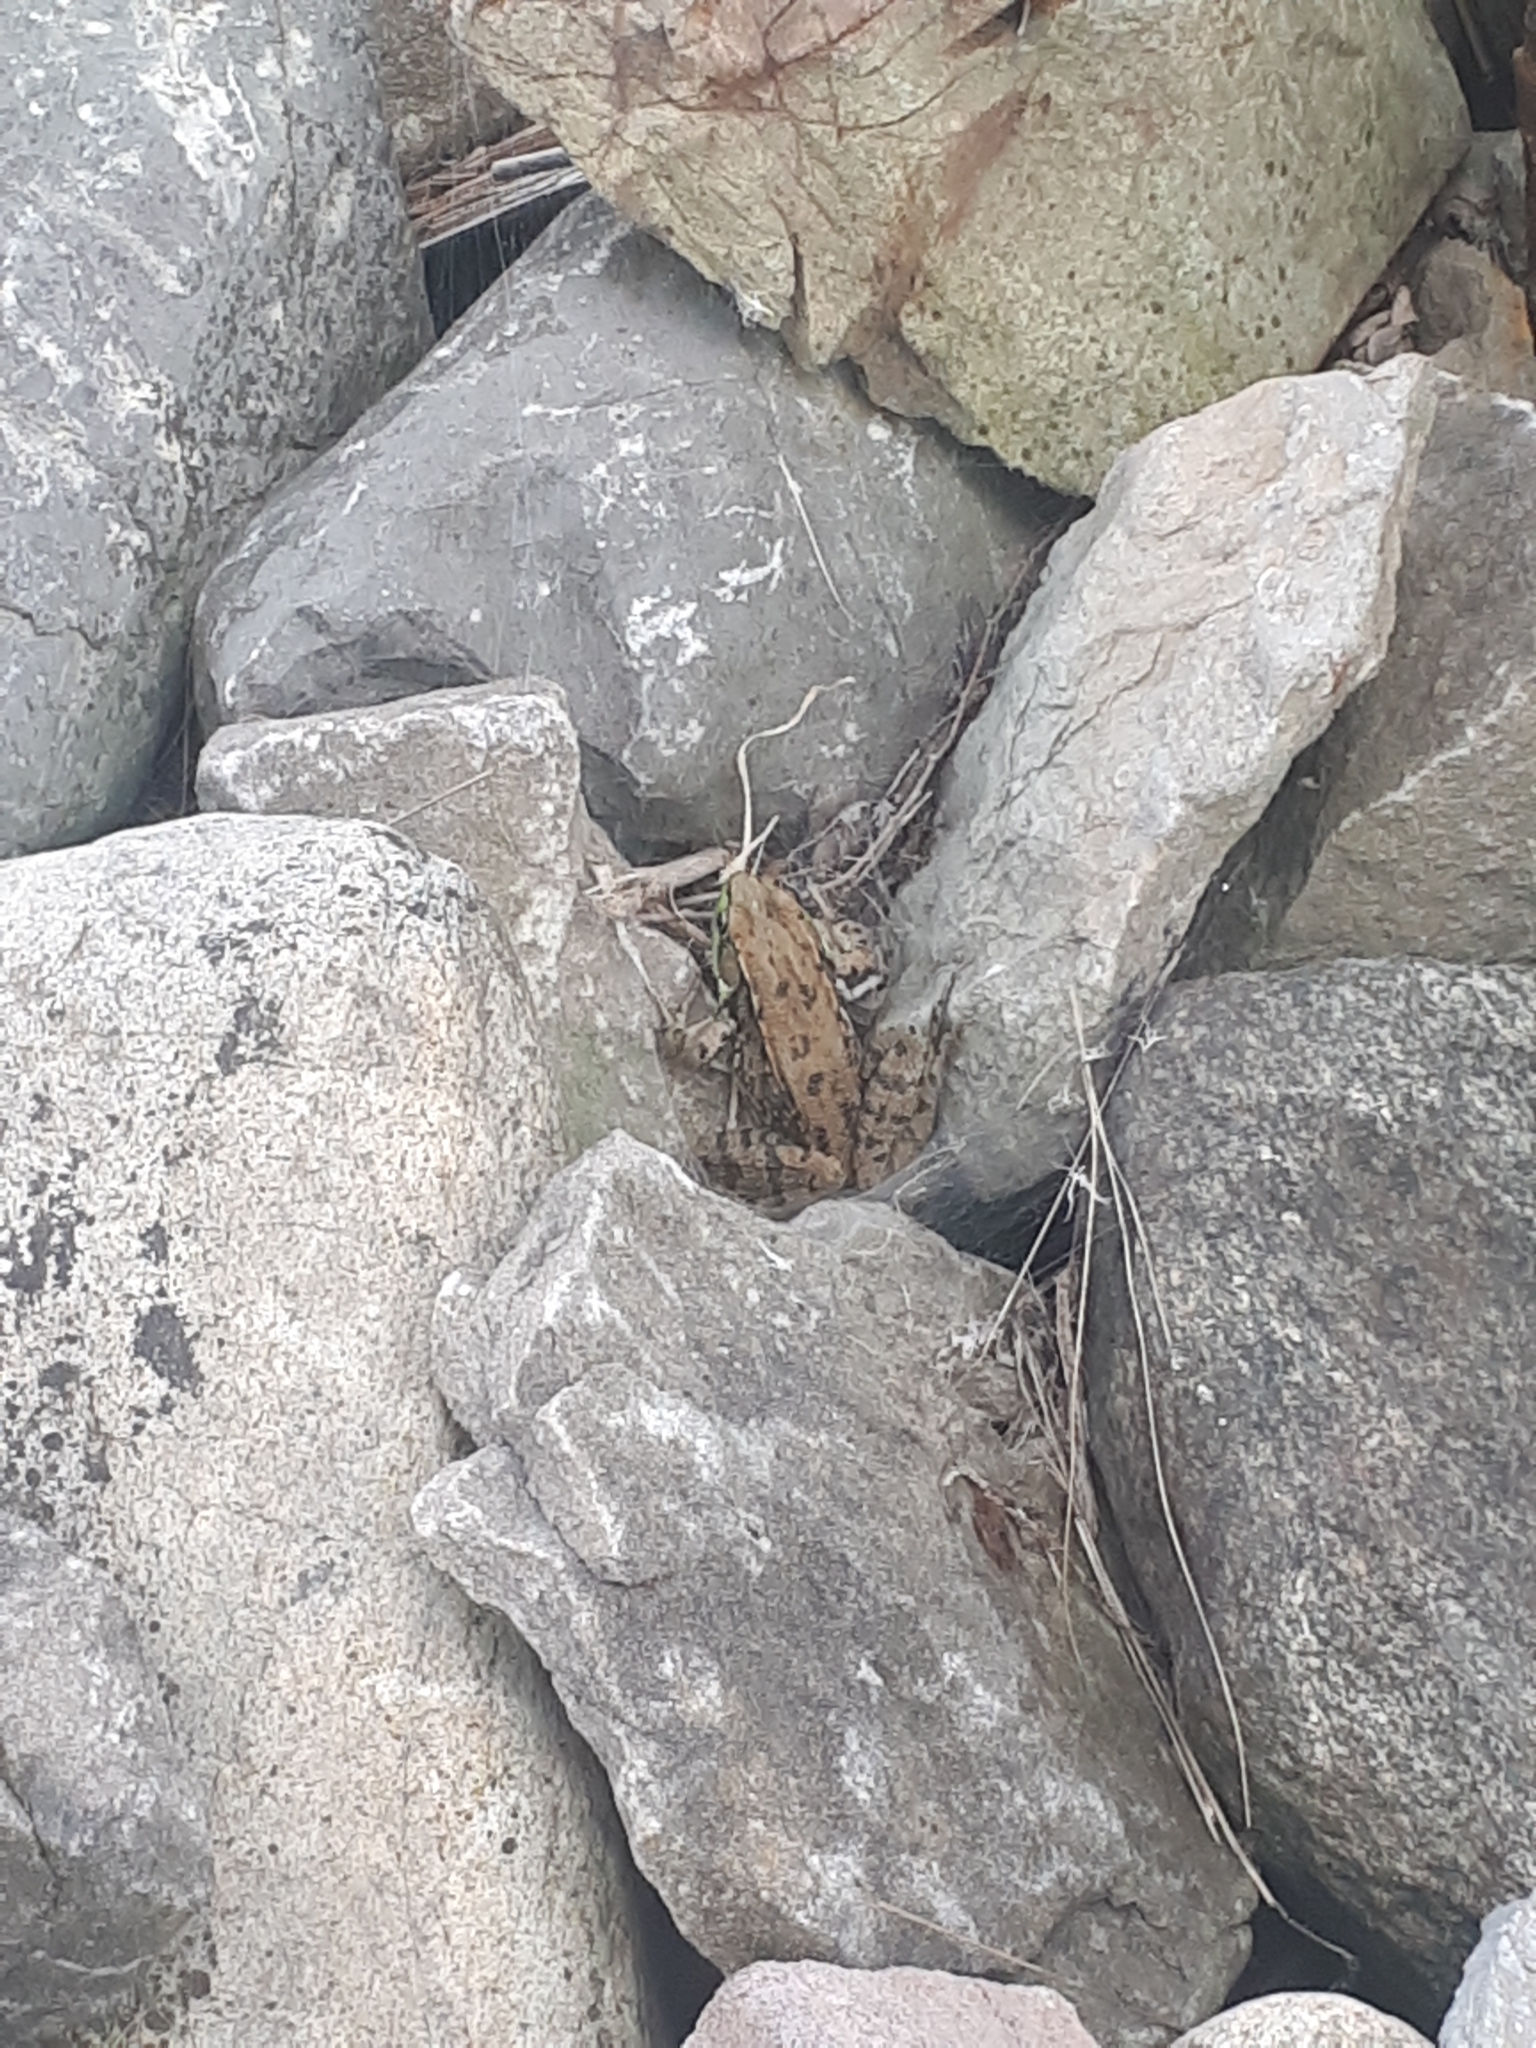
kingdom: Animalia
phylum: Chordata
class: Amphibia
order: Anura
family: Ranidae
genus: Lithobates
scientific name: Lithobates clamitans
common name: Green frog
